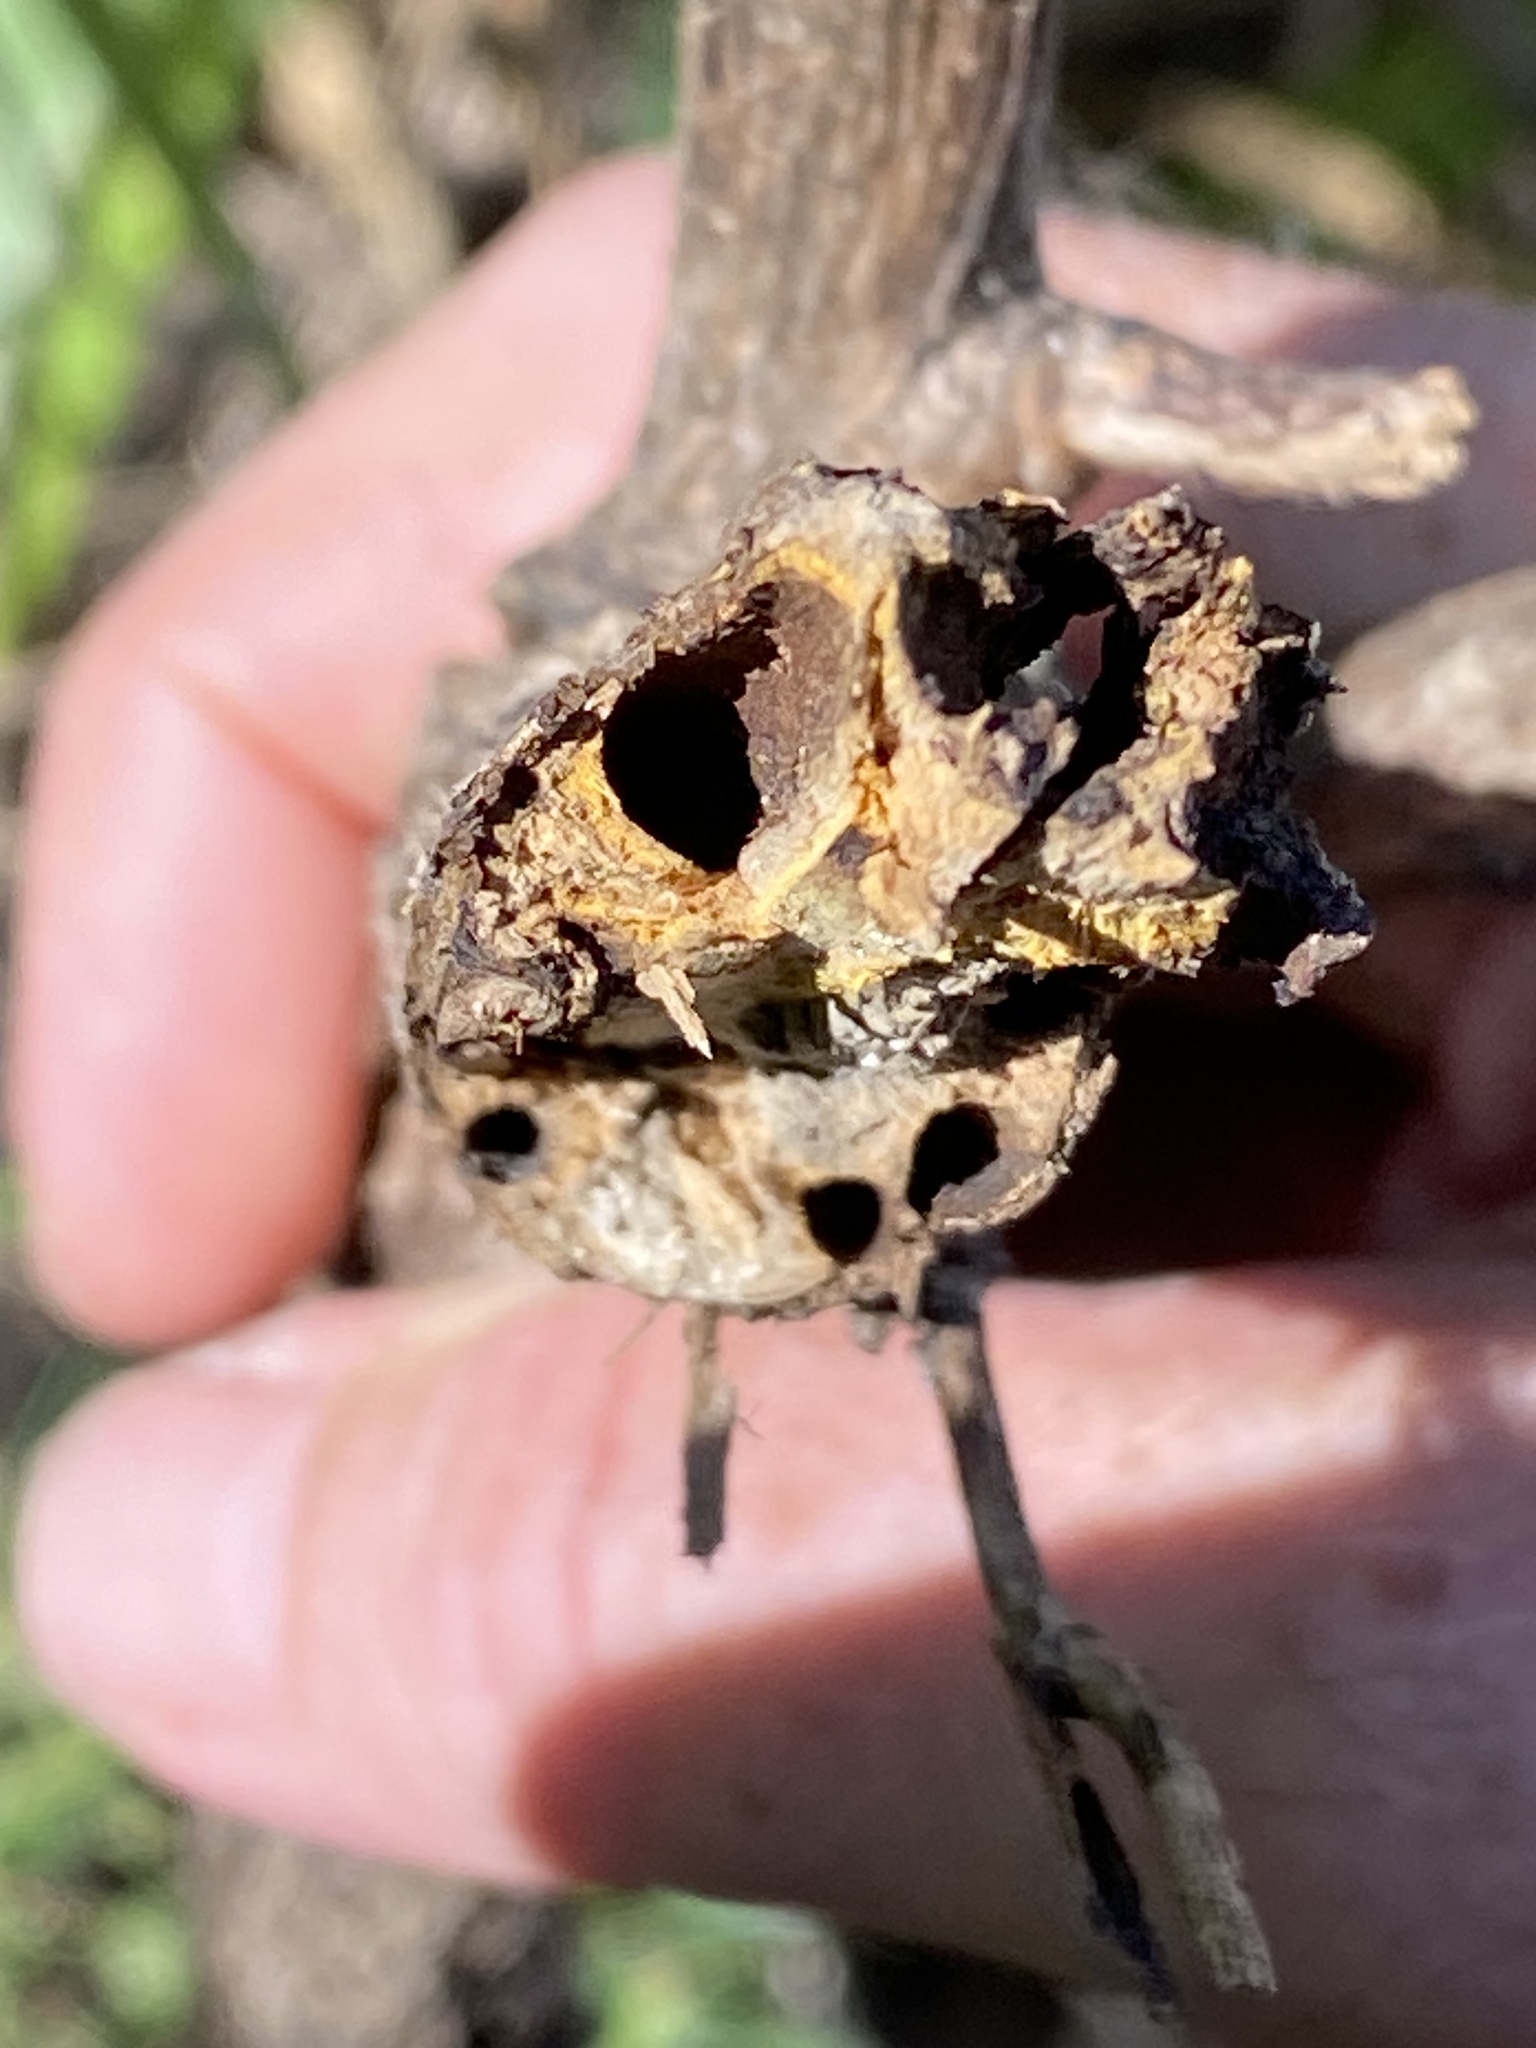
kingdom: Plantae
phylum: Tracheophyta
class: Magnoliopsida
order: Asterales
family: Asteraceae
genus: Baccharis
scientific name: Baccharis halimifolia
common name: Eastern baccharis
